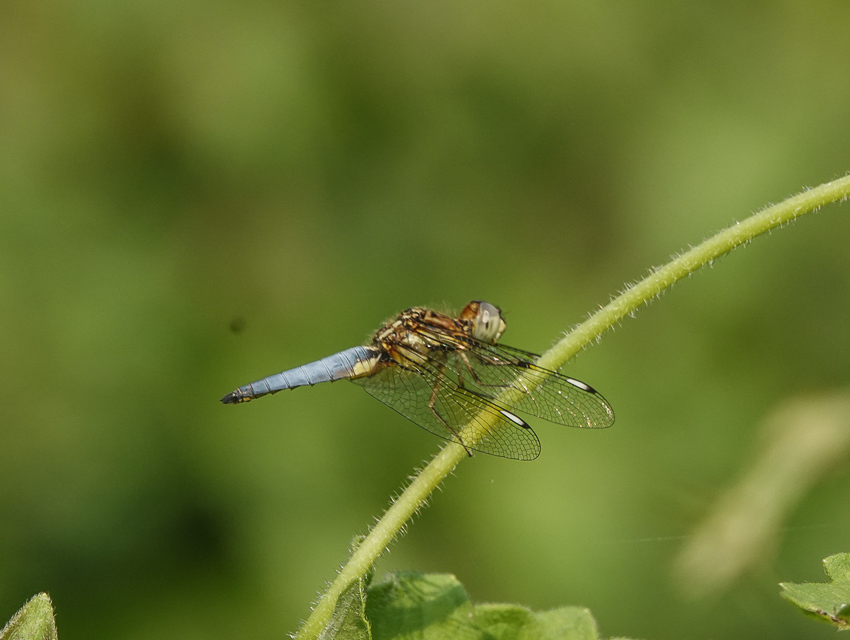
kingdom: Animalia
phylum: Arthropoda
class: Insecta
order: Odonata
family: Libellulidae
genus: Palpopleura
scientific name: Palpopleura sexmaculata
